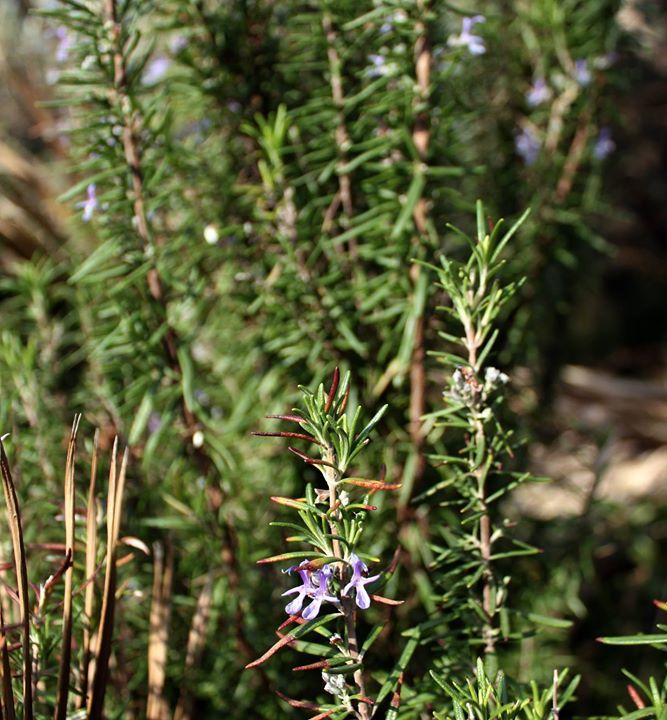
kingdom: Plantae
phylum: Tracheophyta
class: Magnoliopsida
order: Lamiales
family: Lamiaceae
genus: Salvia
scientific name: Salvia rosmarinus
